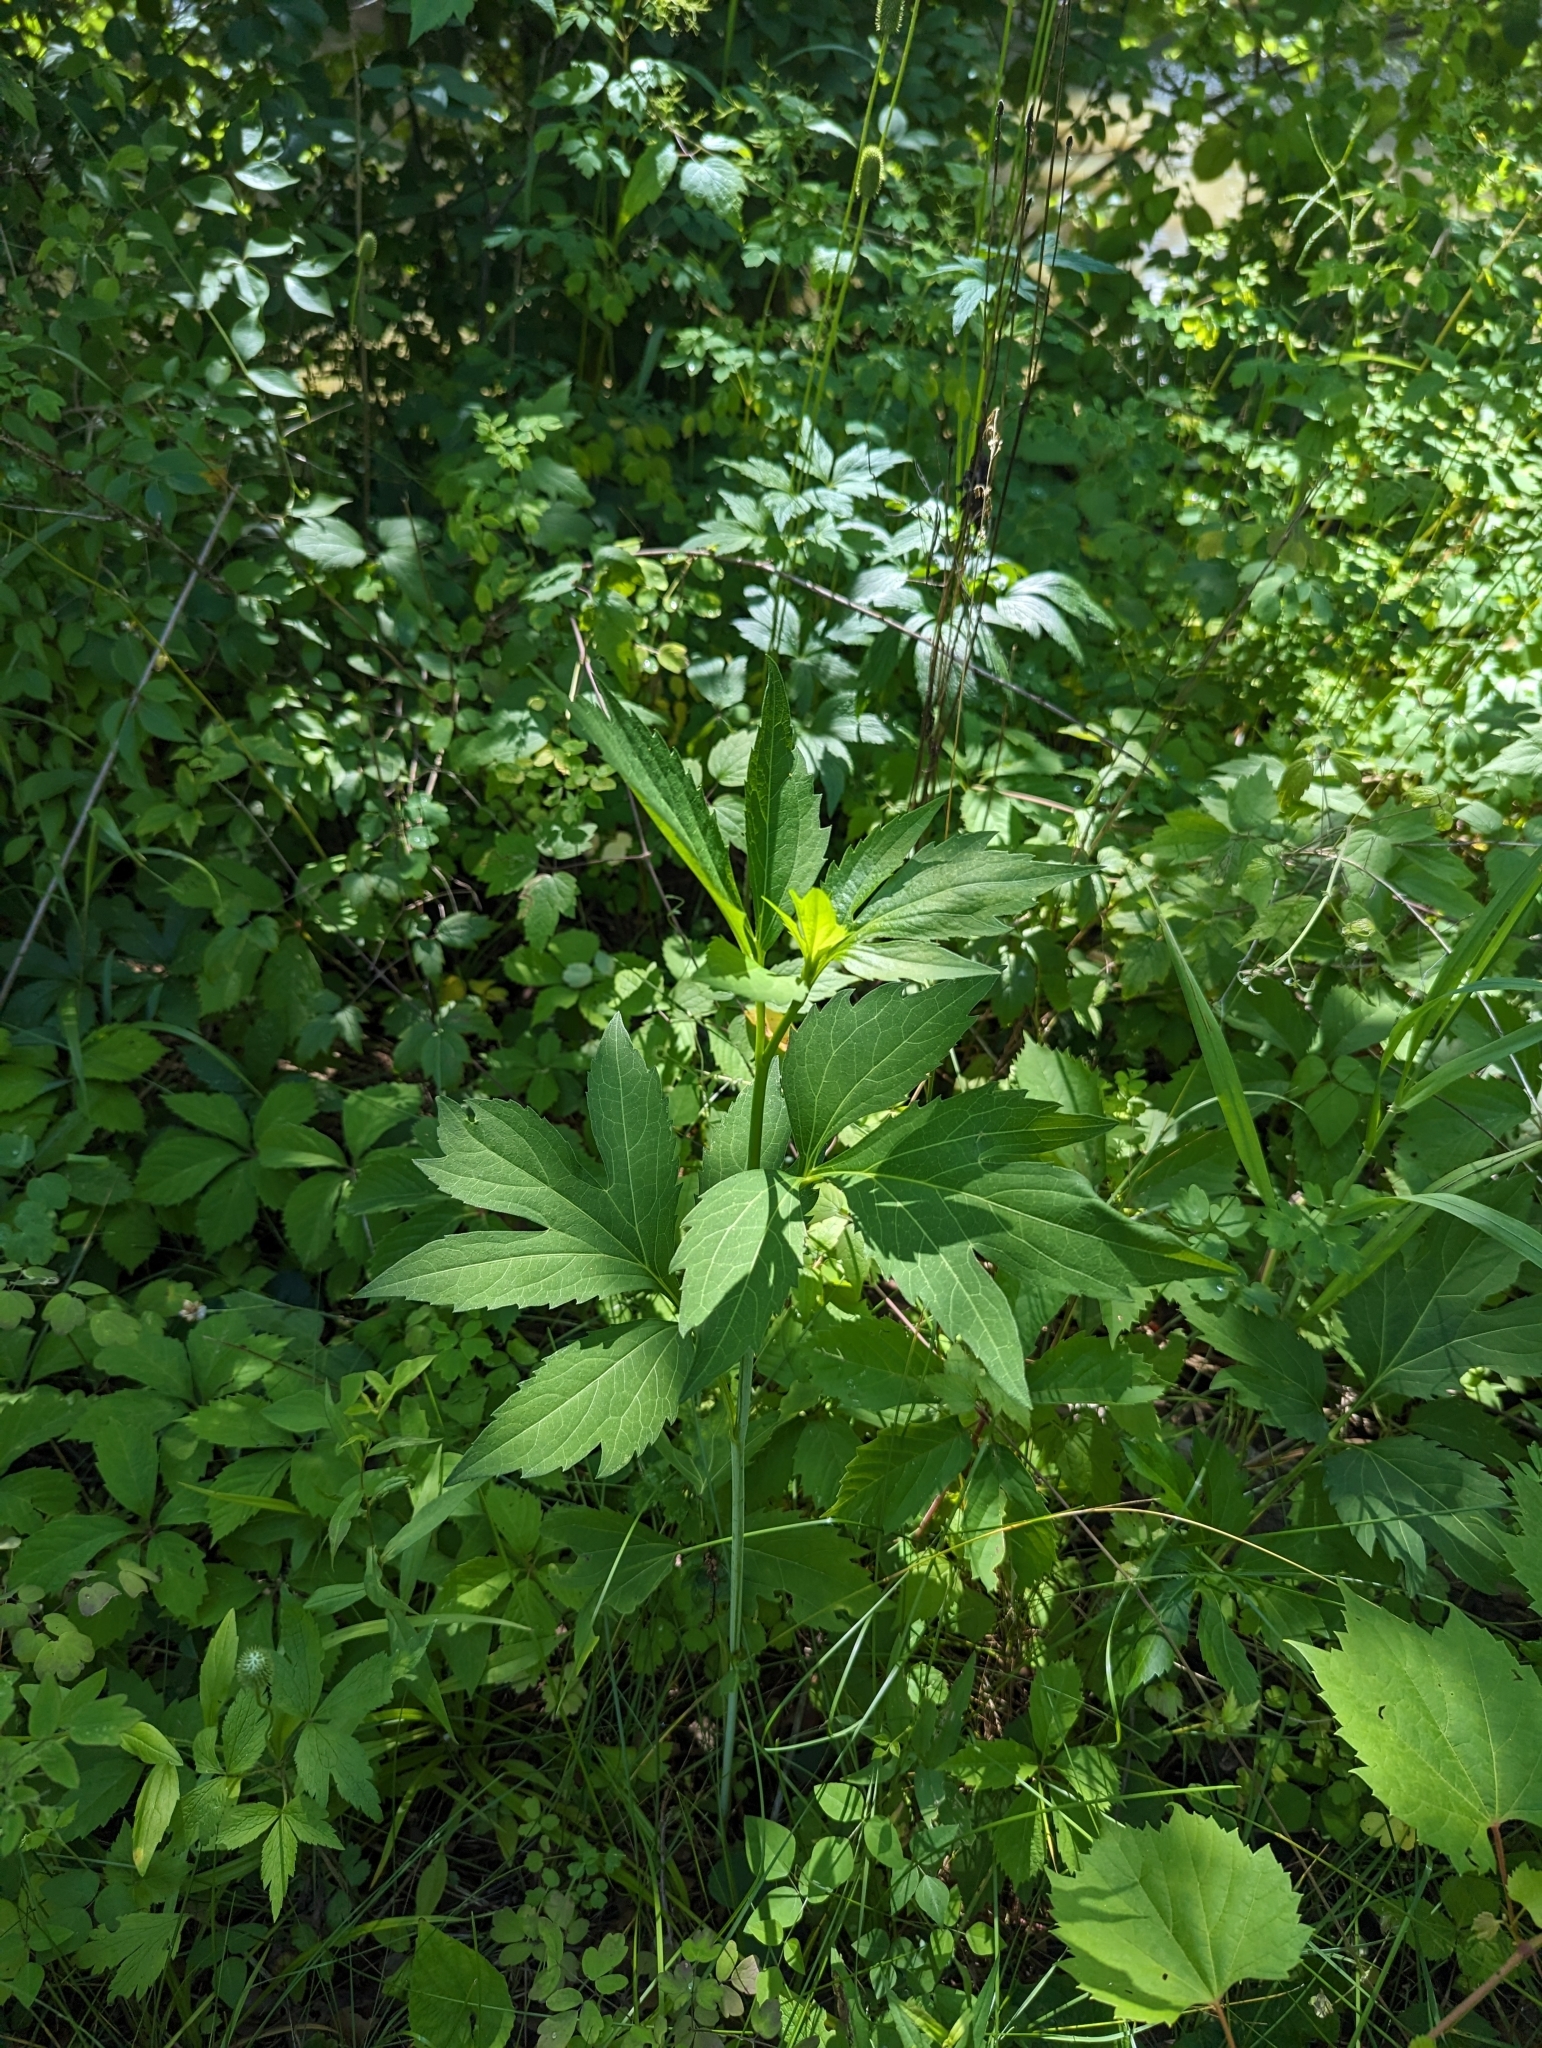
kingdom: Plantae
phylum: Tracheophyta
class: Magnoliopsida
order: Asterales
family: Asteraceae
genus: Rudbeckia
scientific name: Rudbeckia laciniata
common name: Coneflower
